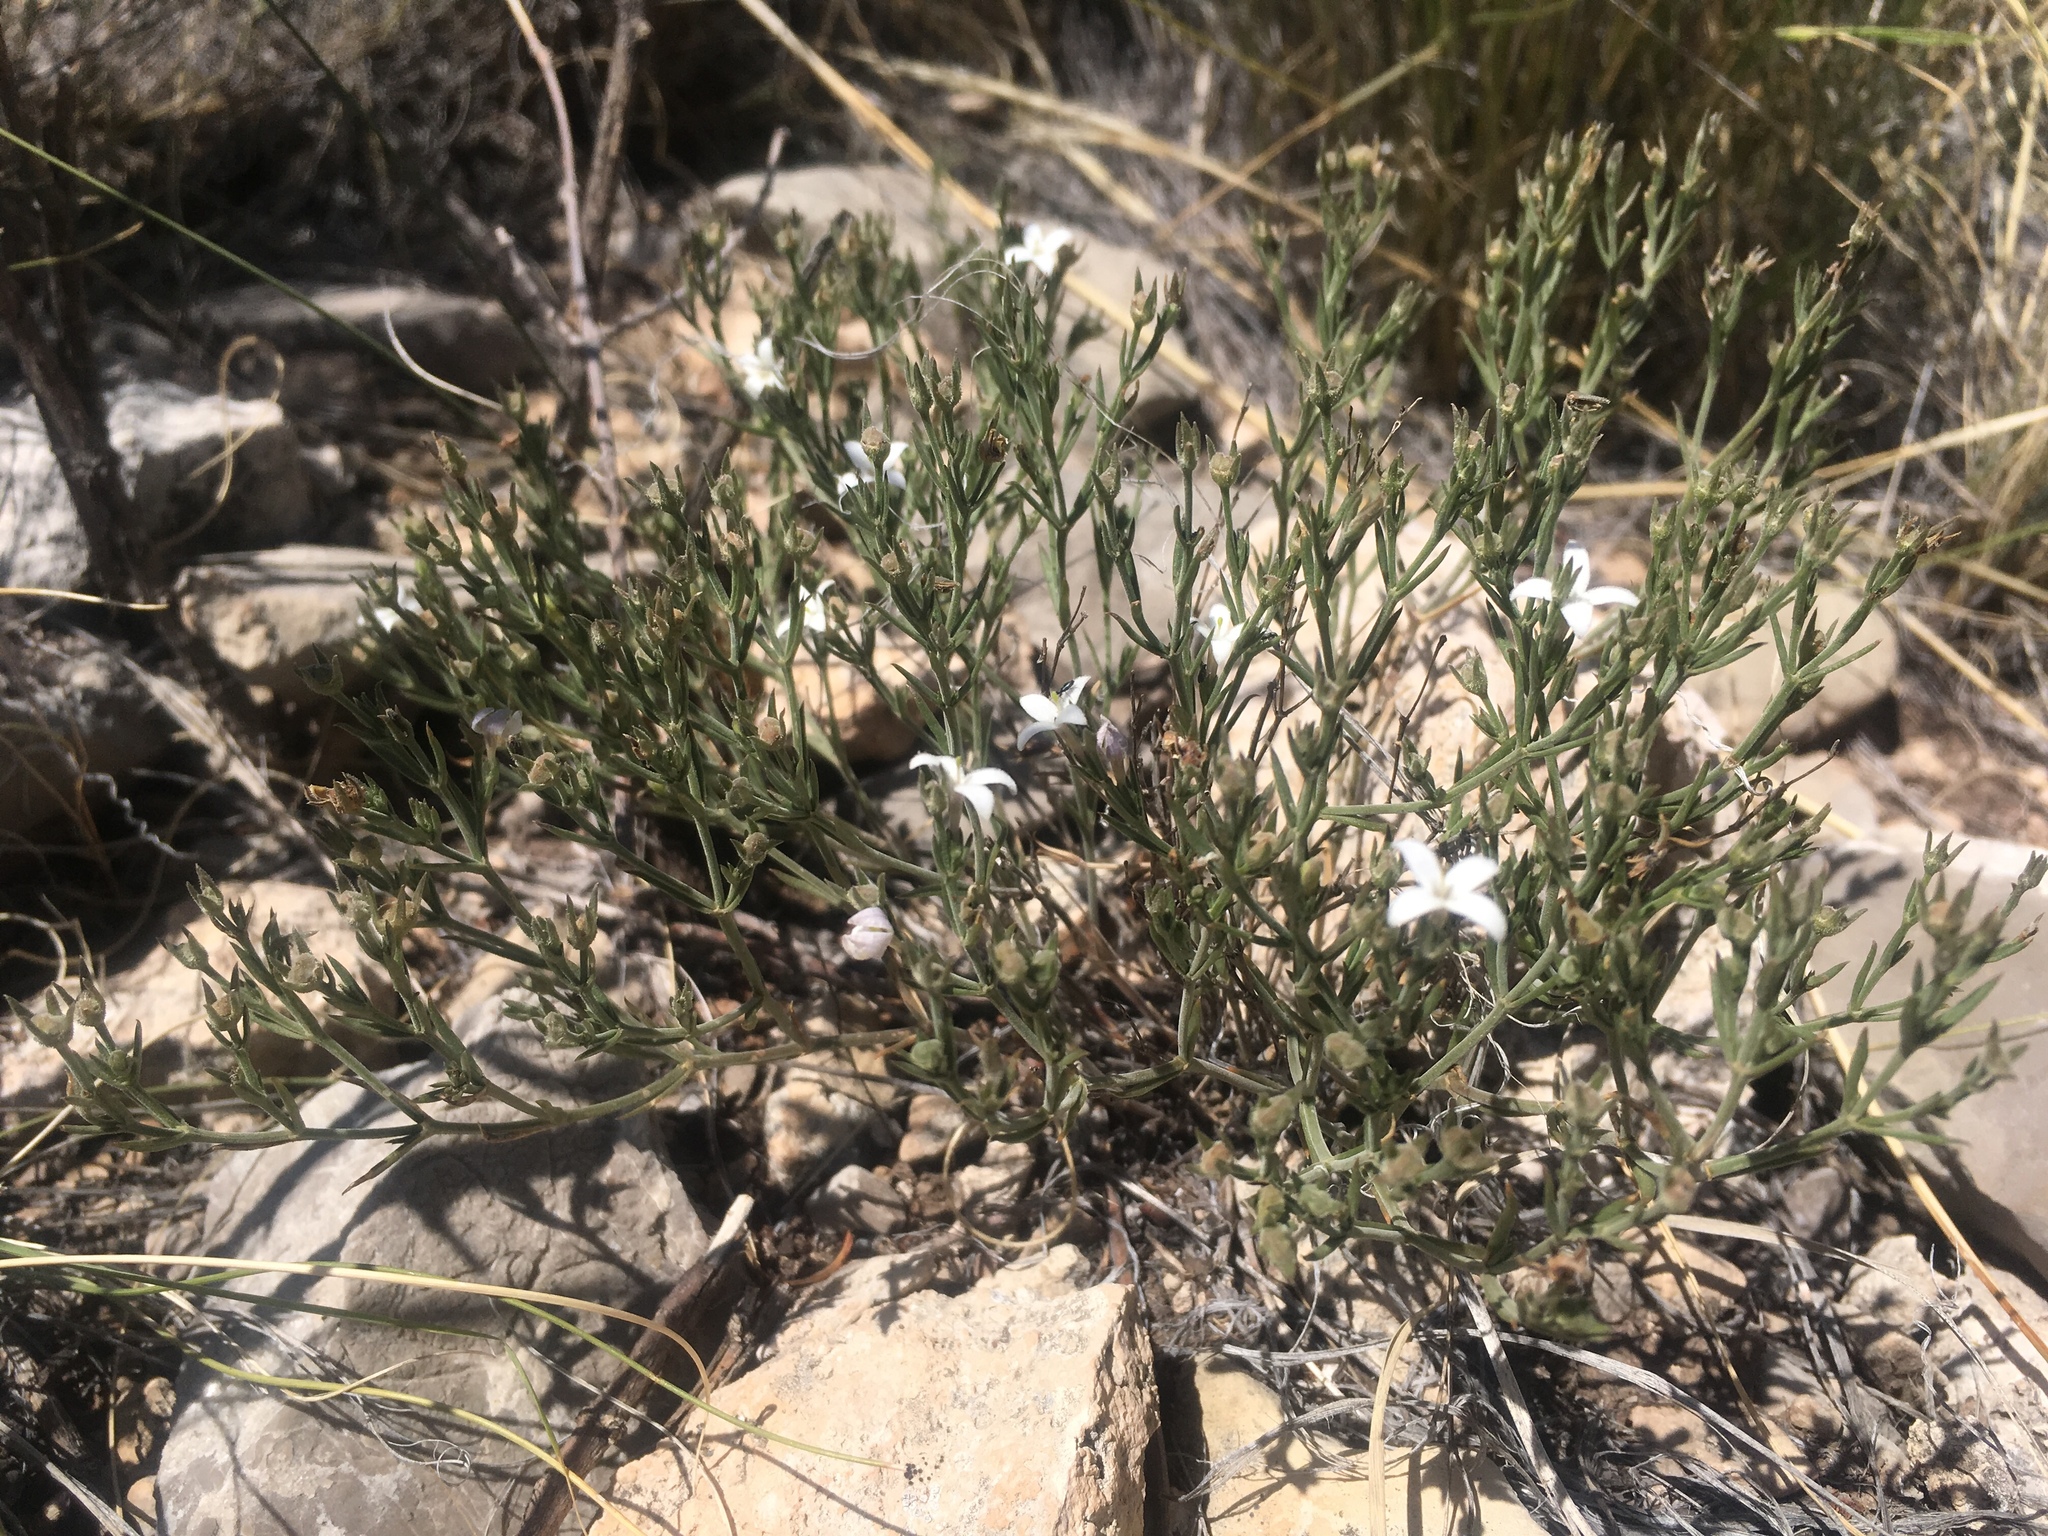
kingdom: Plantae
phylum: Tracheophyta
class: Magnoliopsida
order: Gentianales
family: Rubiaceae
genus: Houstonia
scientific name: Houstonia acerosa
